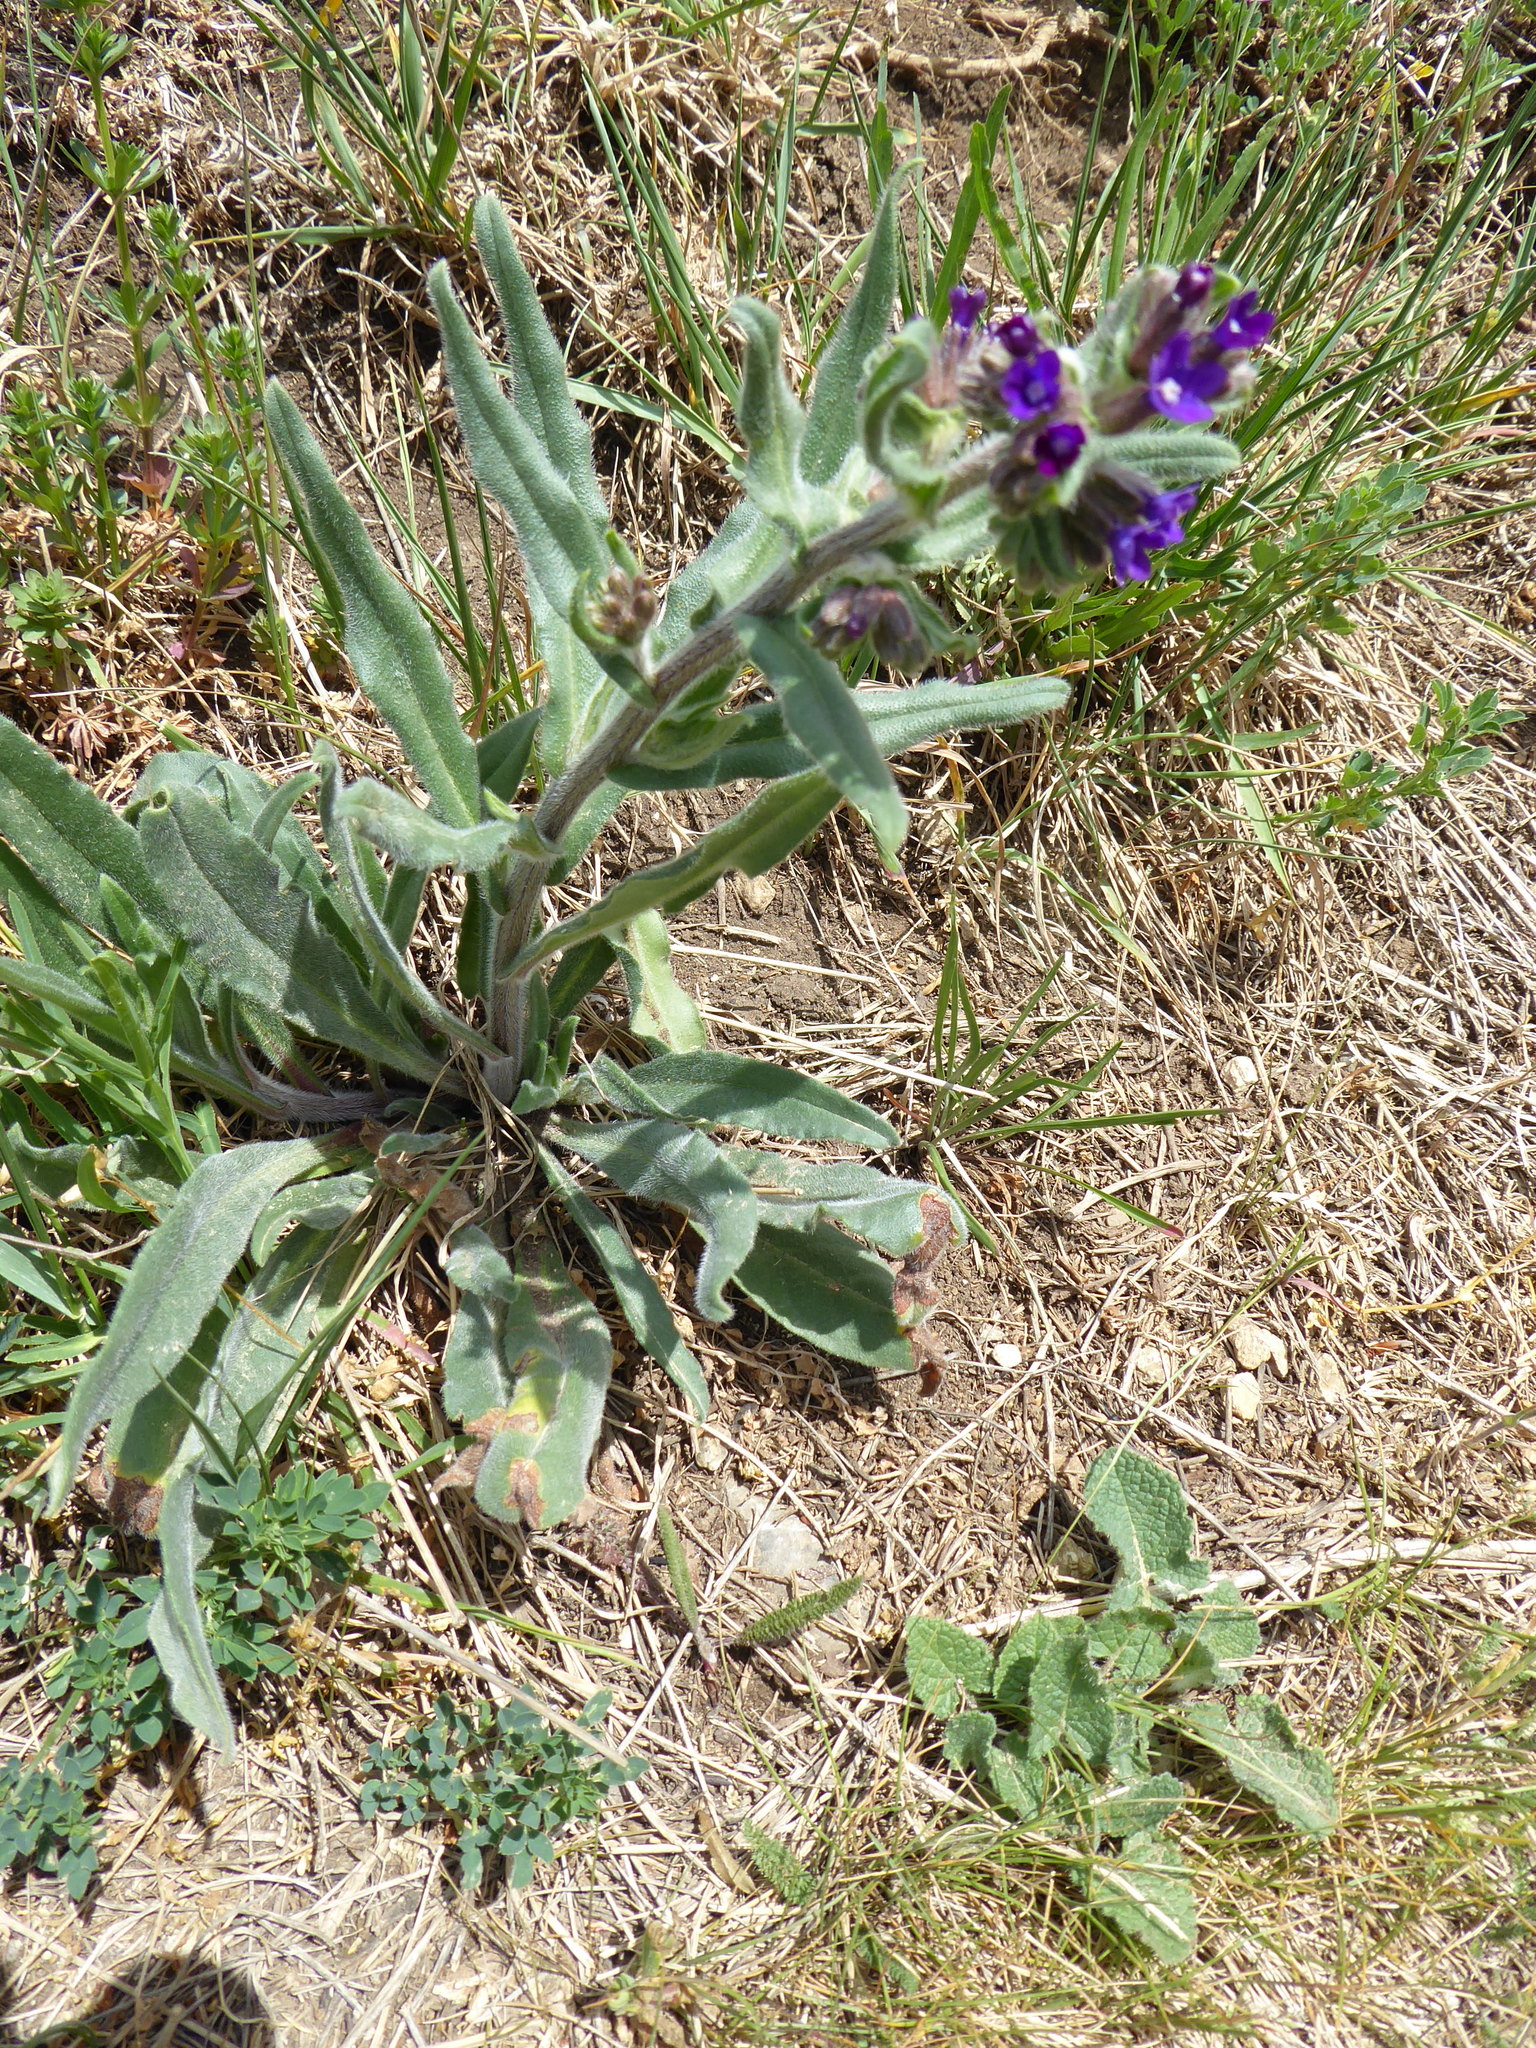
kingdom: Plantae
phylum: Tracheophyta
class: Magnoliopsida
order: Boraginales
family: Boraginaceae
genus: Anchusa
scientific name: Anchusa officinalis
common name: Alkanet
